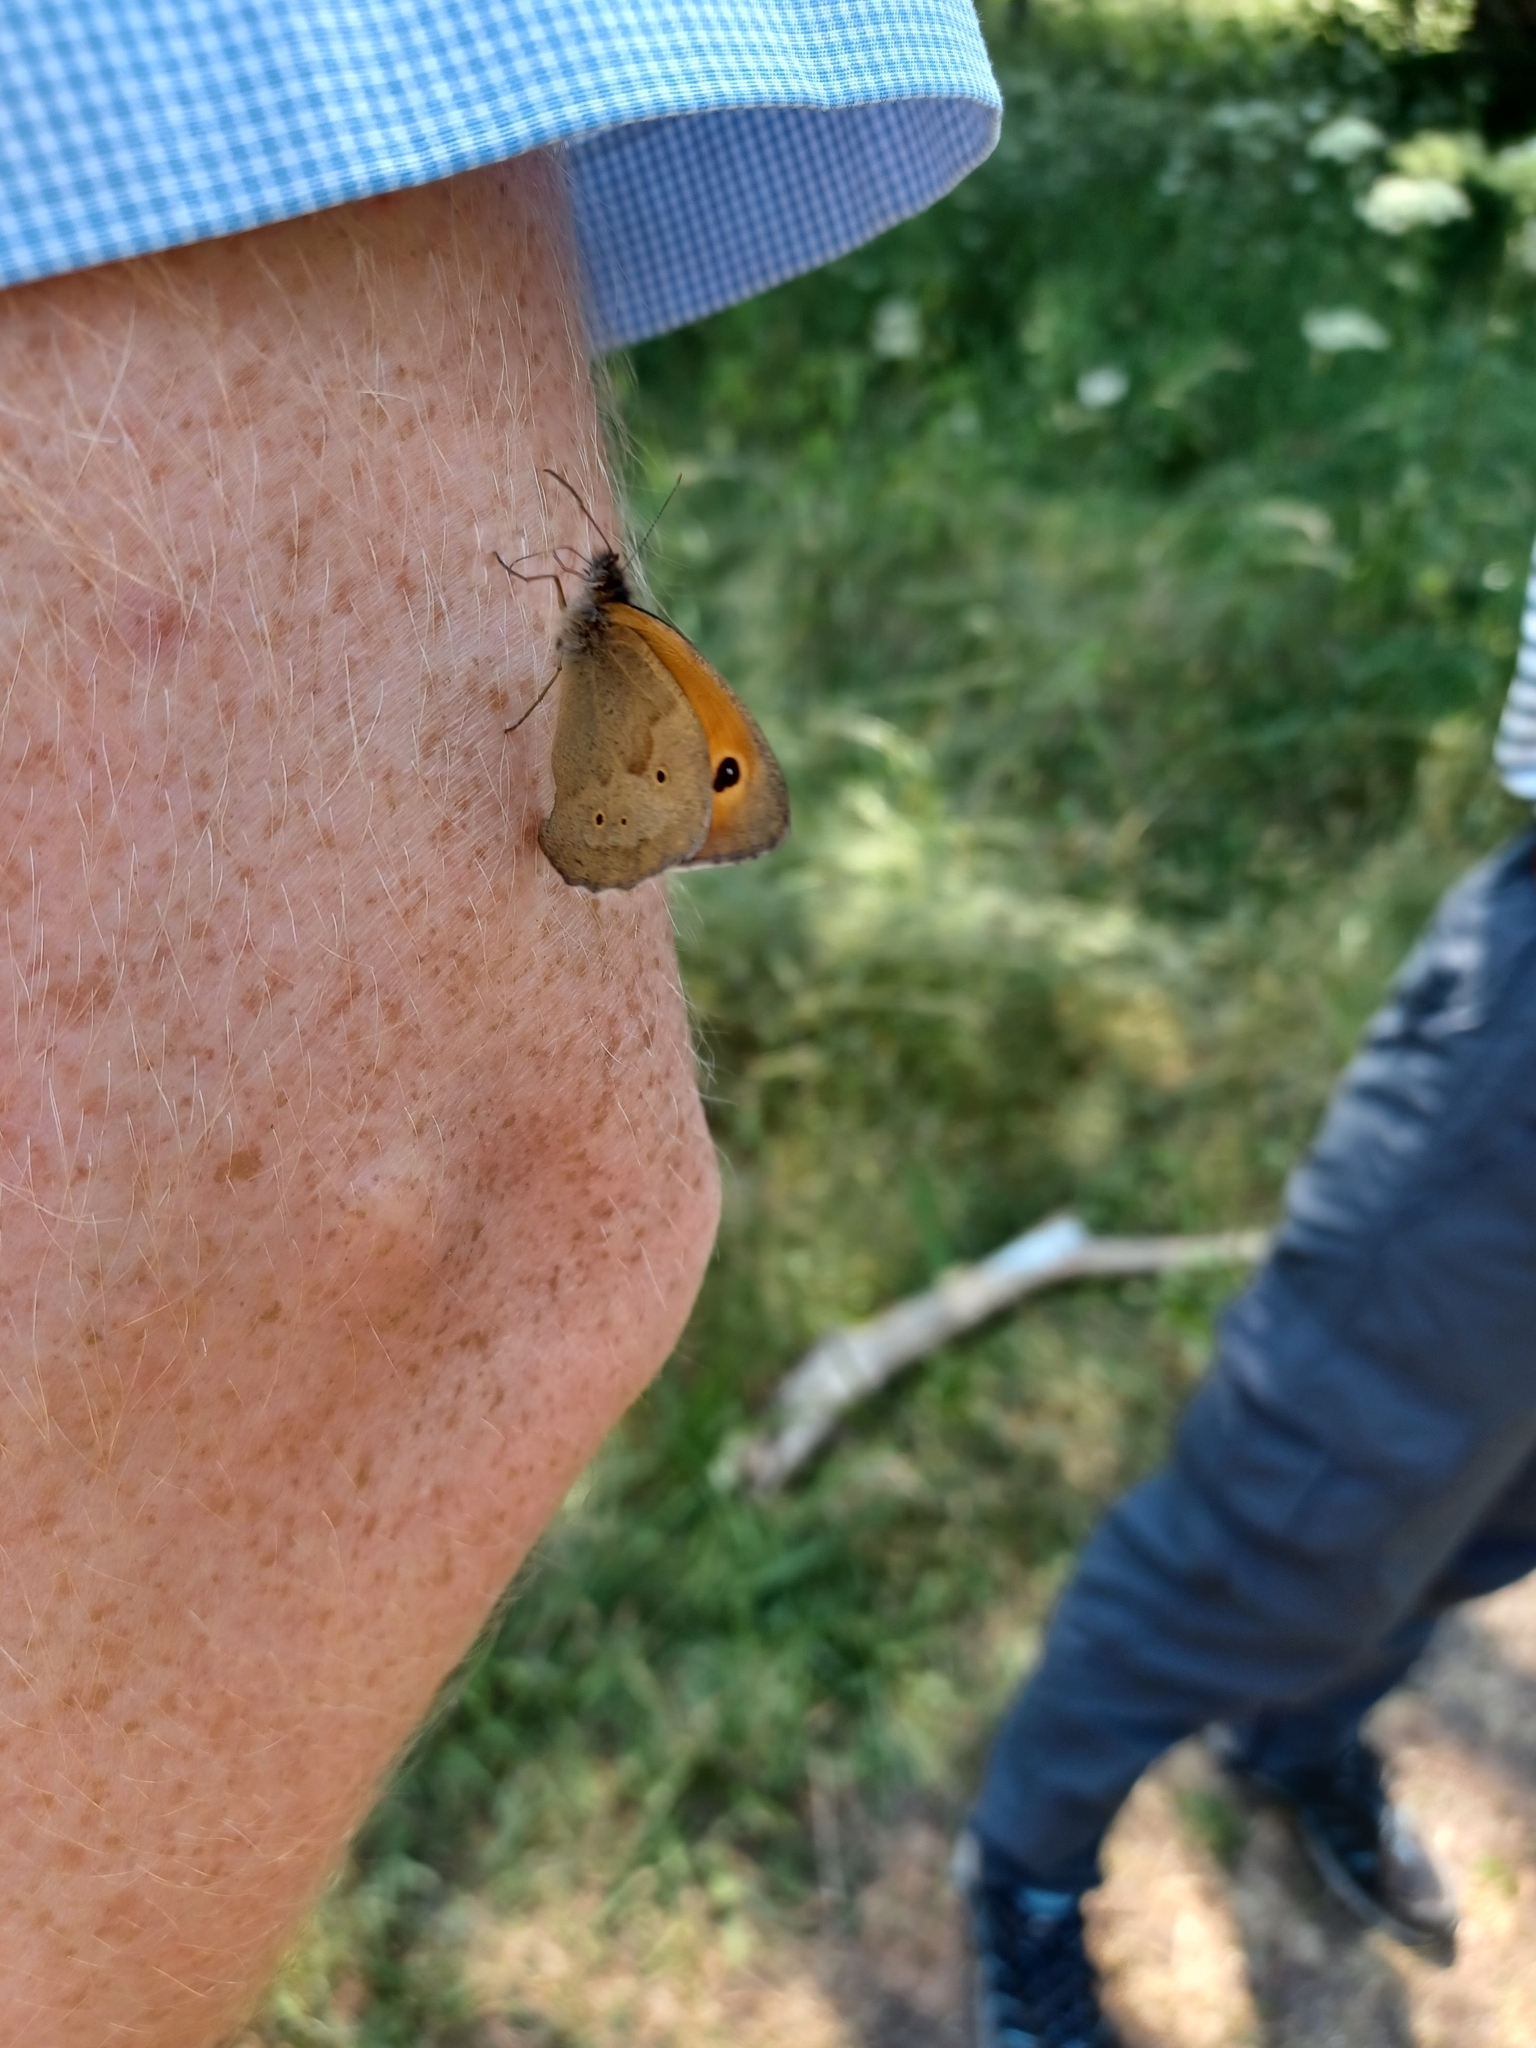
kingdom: Animalia
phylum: Arthropoda
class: Insecta
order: Lepidoptera
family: Nymphalidae
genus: Maniola
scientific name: Maniola jurtina
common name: Meadow brown
